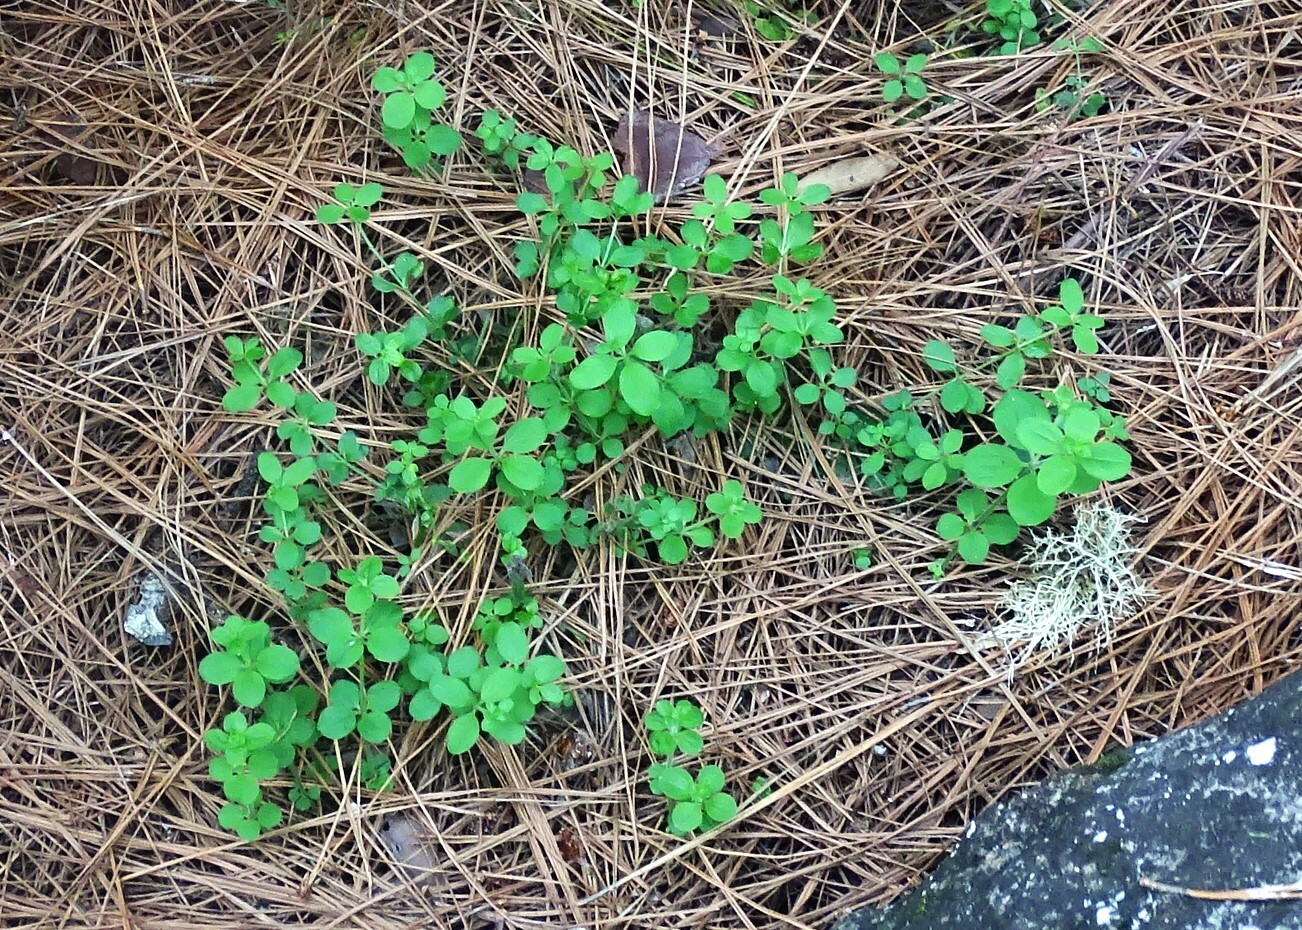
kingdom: Plantae
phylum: Tracheophyta
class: Magnoliopsida
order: Gentianales
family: Rubiaceae
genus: Galium
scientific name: Galium scabrum
